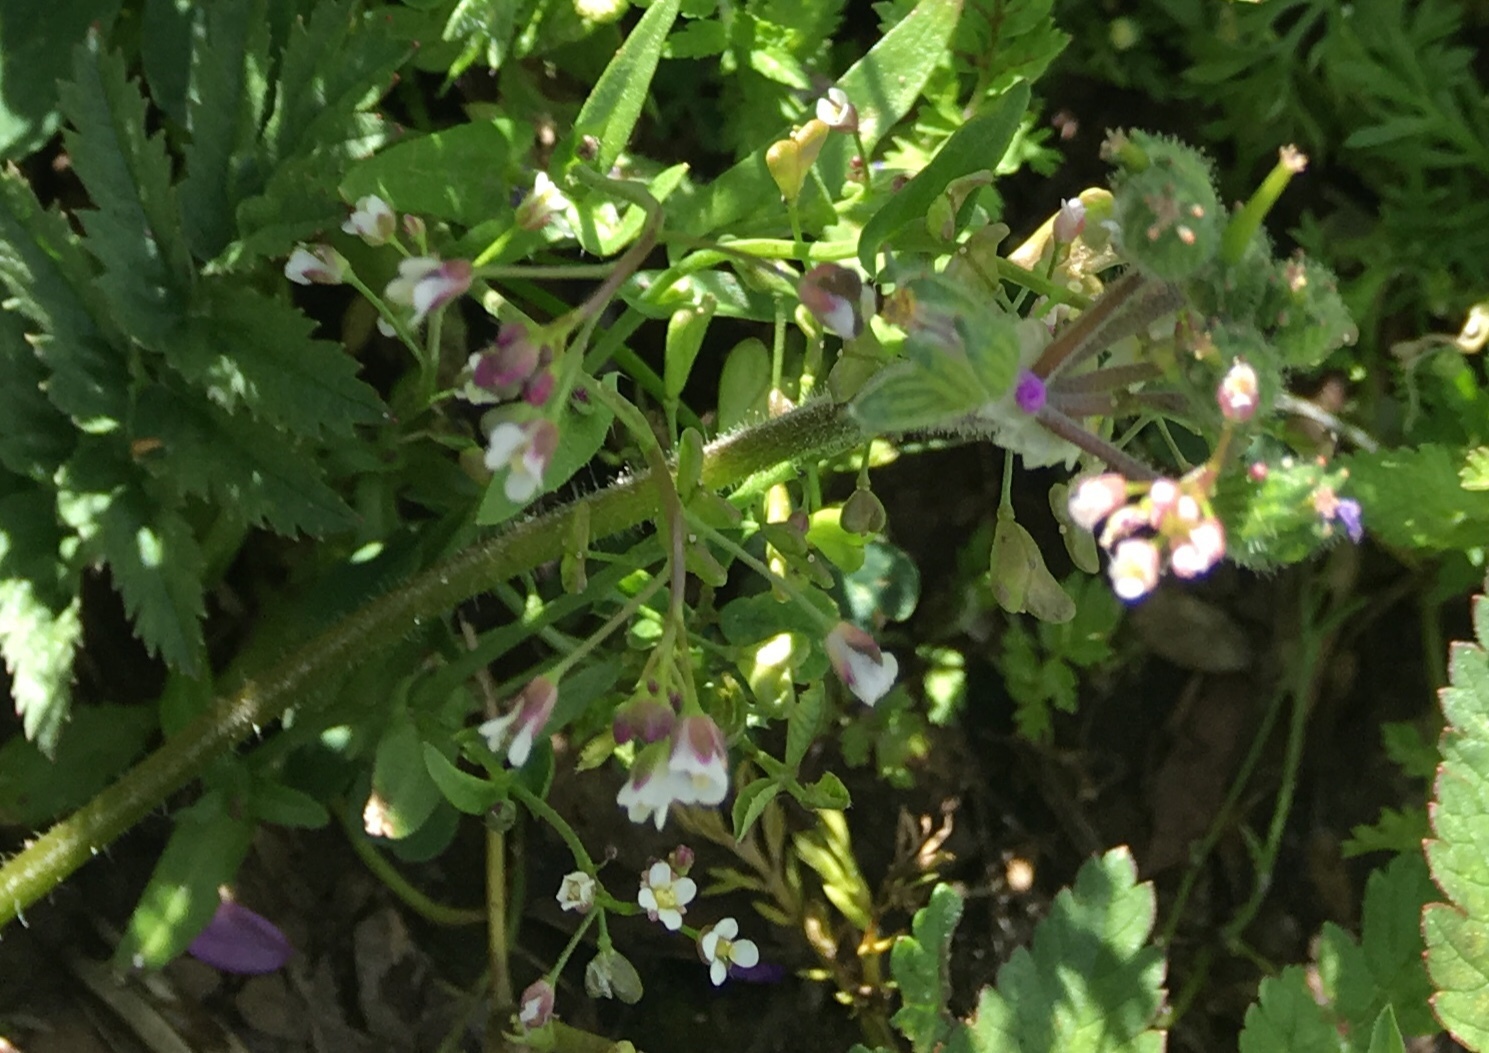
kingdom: Plantae
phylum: Tracheophyta
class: Magnoliopsida
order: Brassicales
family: Brassicaceae
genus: Capsella
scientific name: Capsella bursa-pastoris
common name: Shepherd's purse
